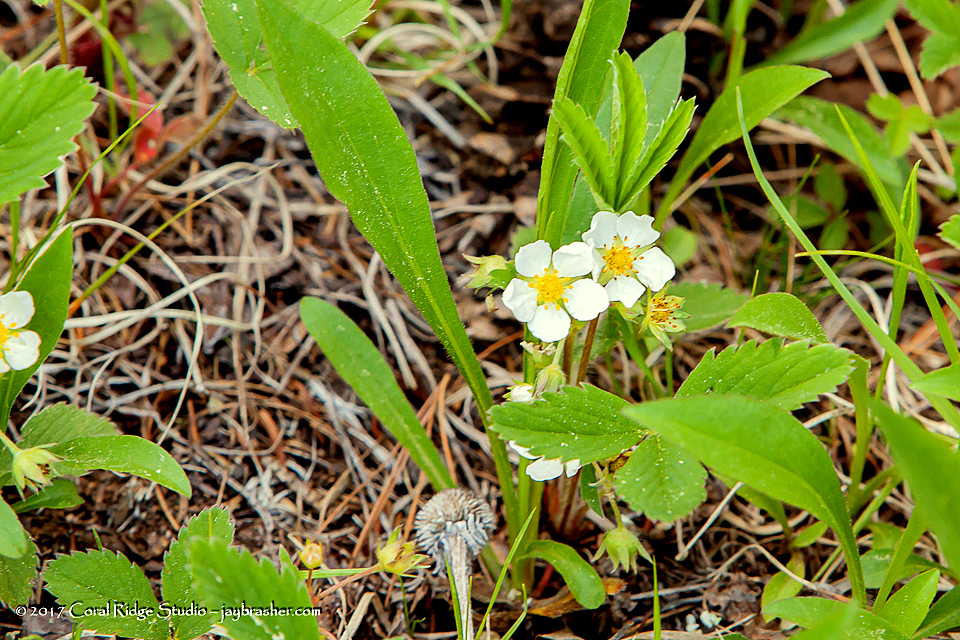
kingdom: Plantae
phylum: Tracheophyta
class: Magnoliopsida
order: Rosales
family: Rosaceae
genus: Fragaria
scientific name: Fragaria virginiana
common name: Thickleaved wild strawberry
